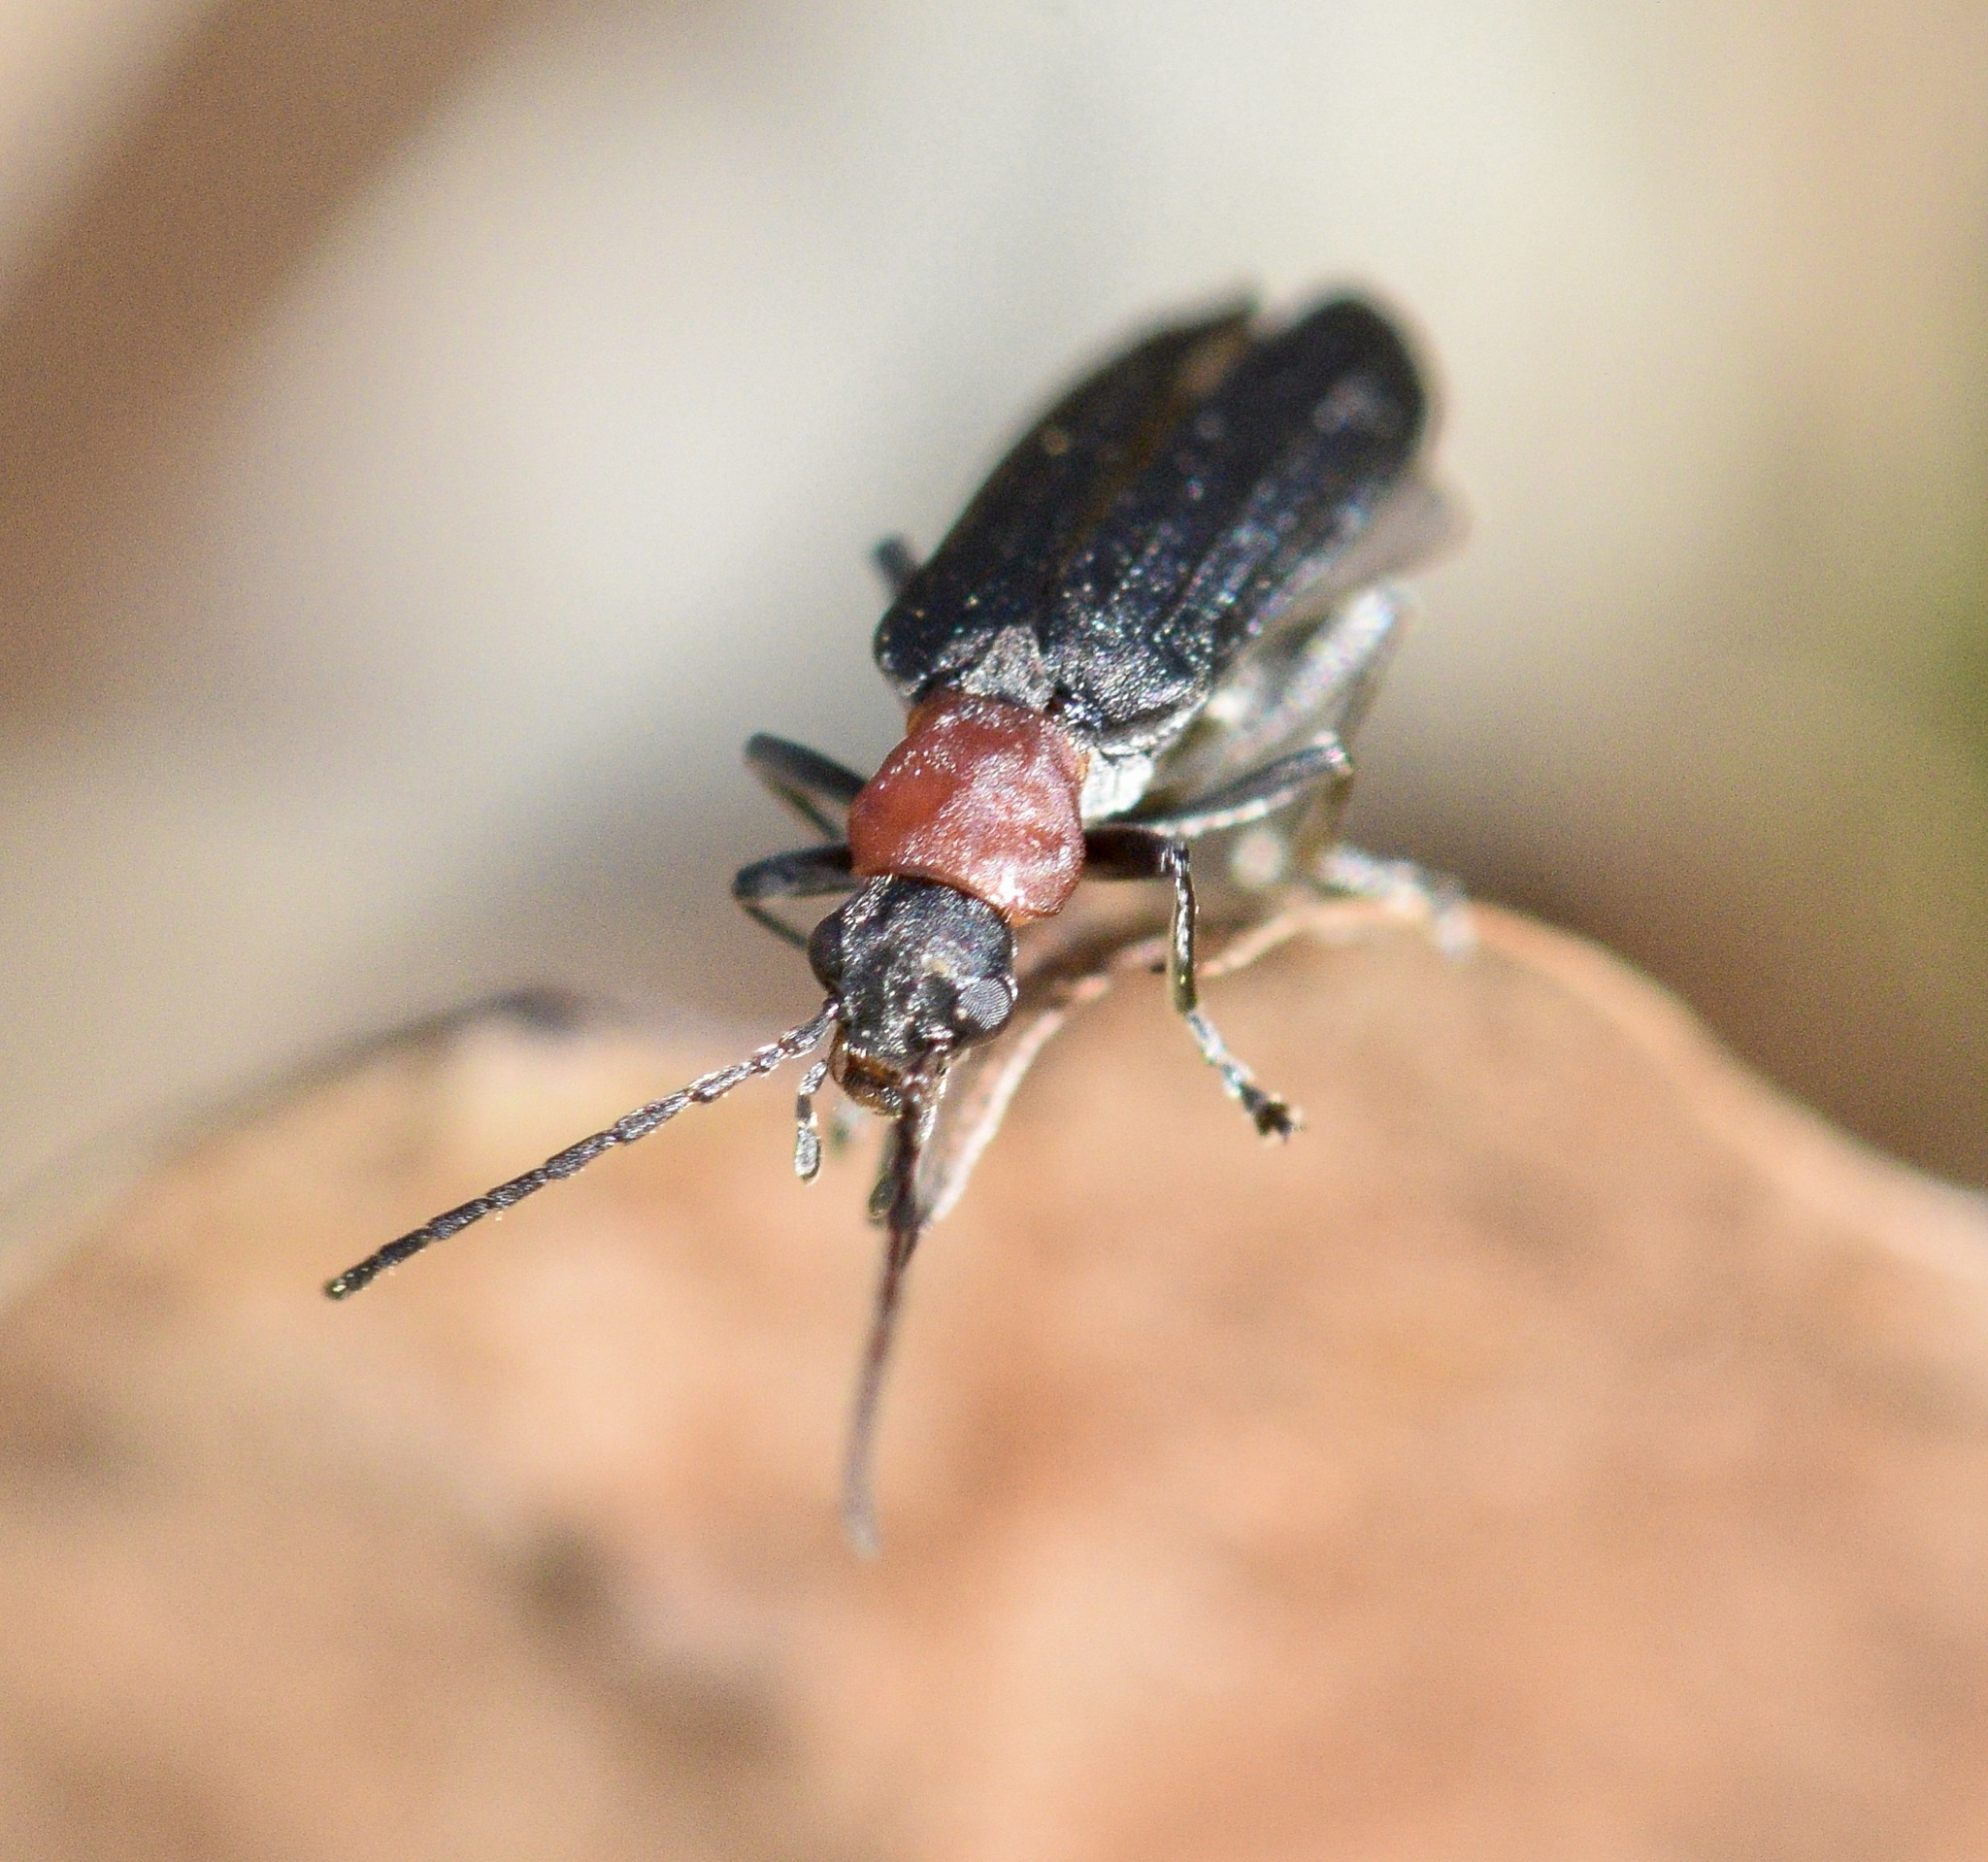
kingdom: Animalia
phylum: Arthropoda
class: Insecta
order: Coleoptera
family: Oedemeridae
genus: Ischnomera
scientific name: Ischnomera
